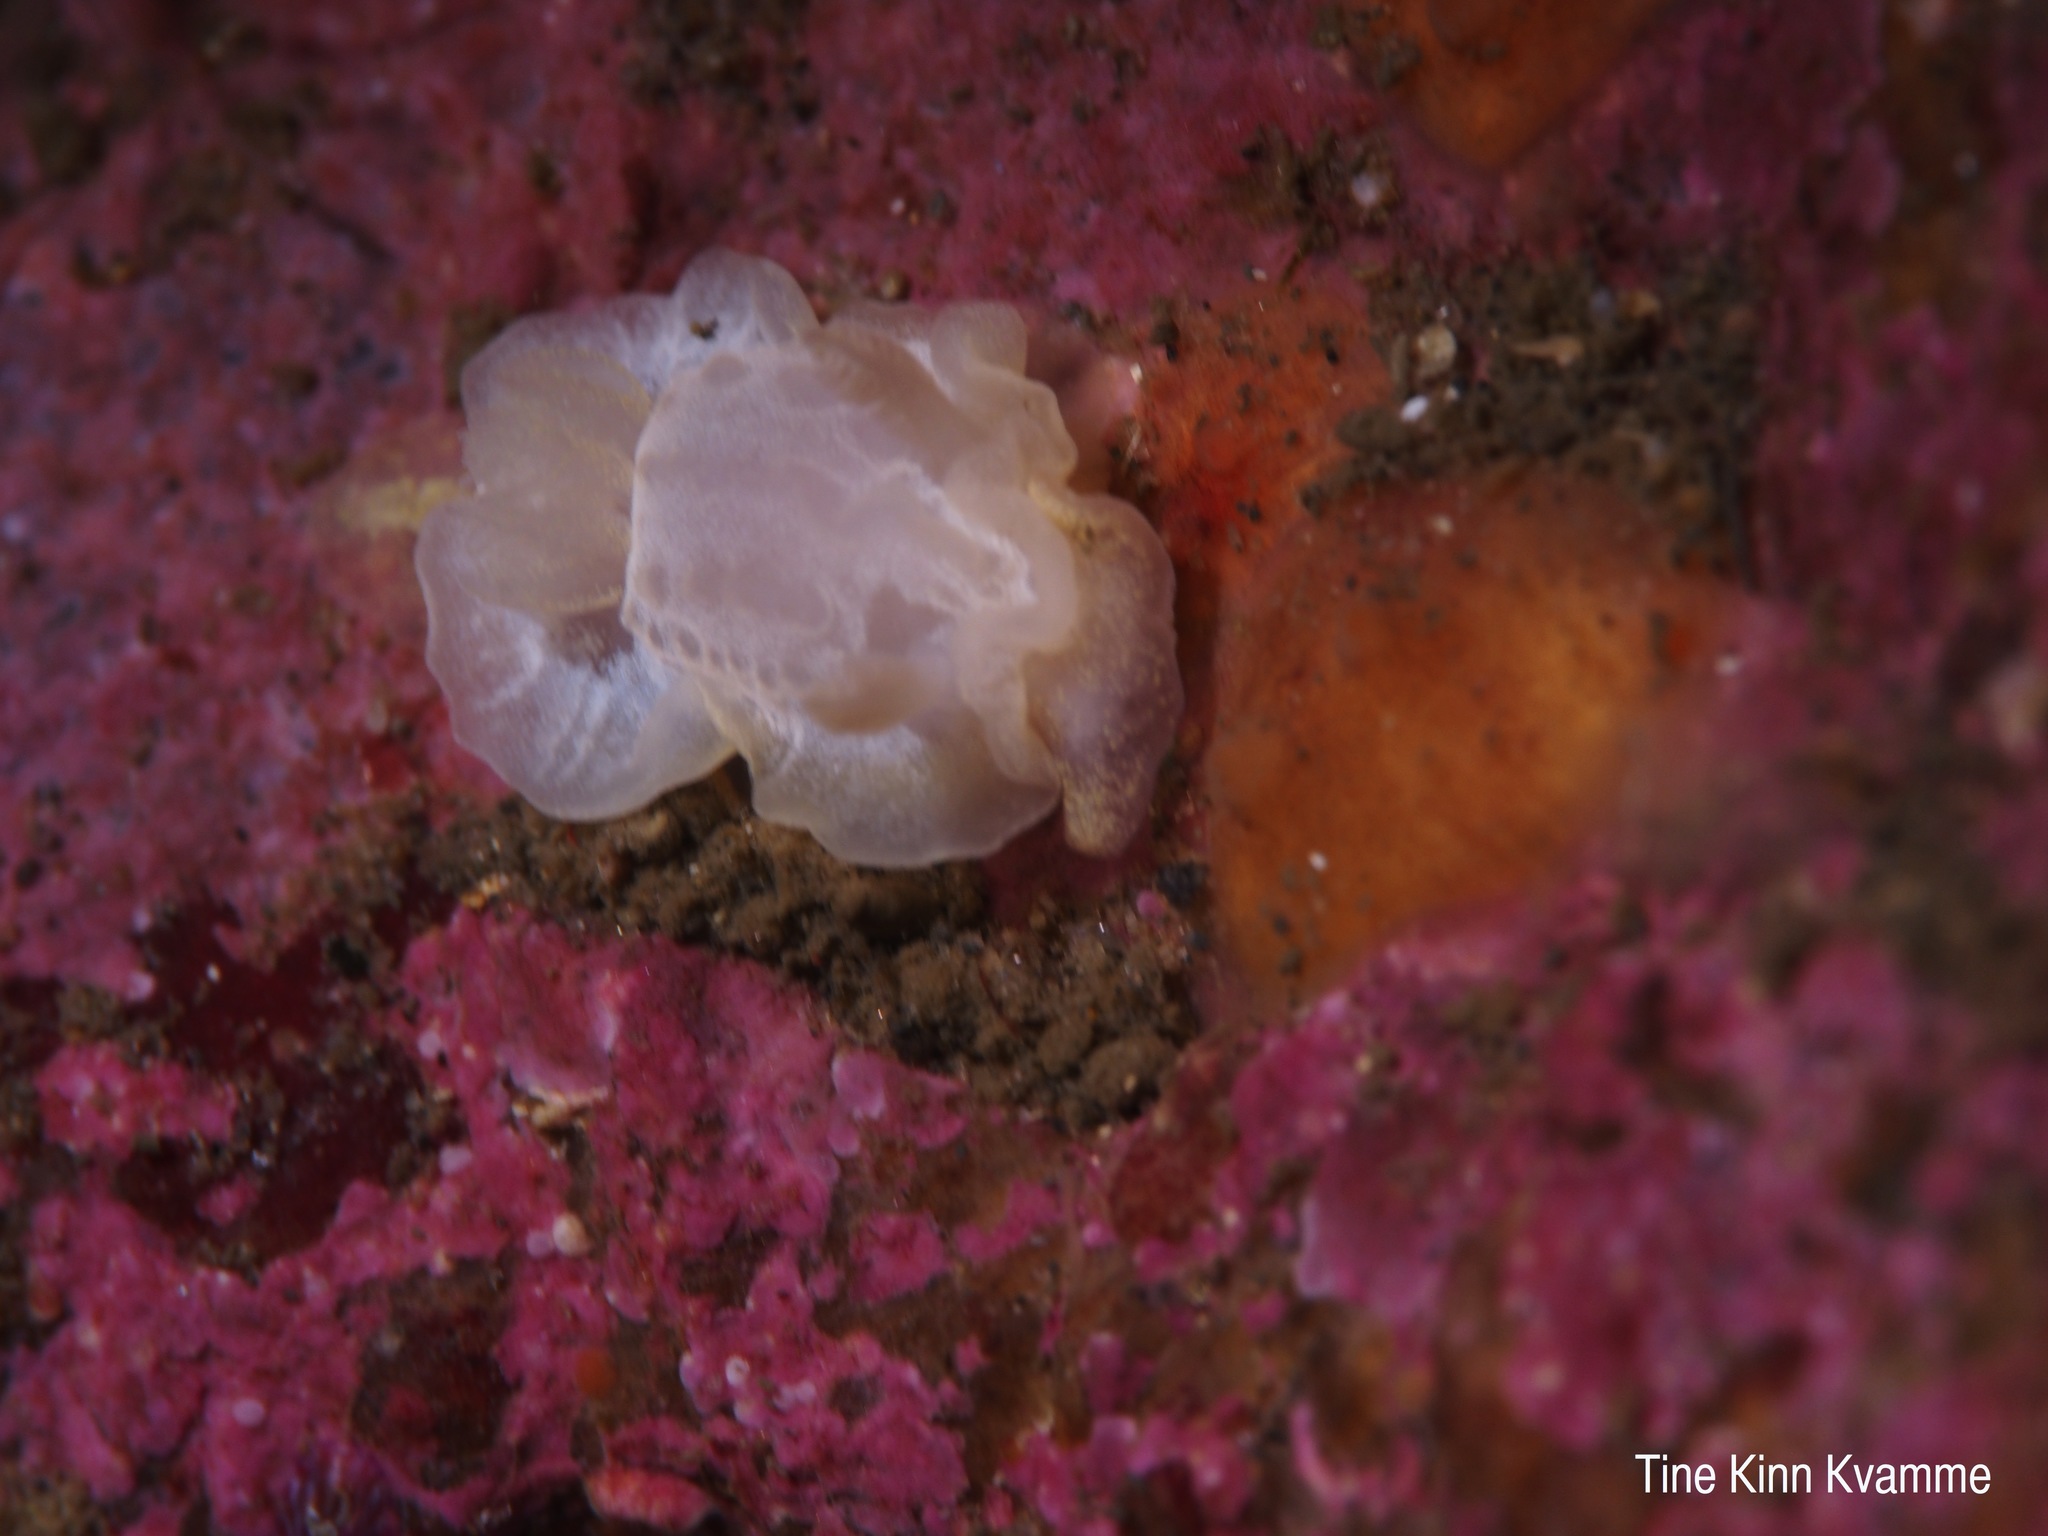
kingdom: Animalia
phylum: Mollusca
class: Gastropoda
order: Nudibranchia
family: Goniodorididae
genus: Okenia
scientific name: Okenia
